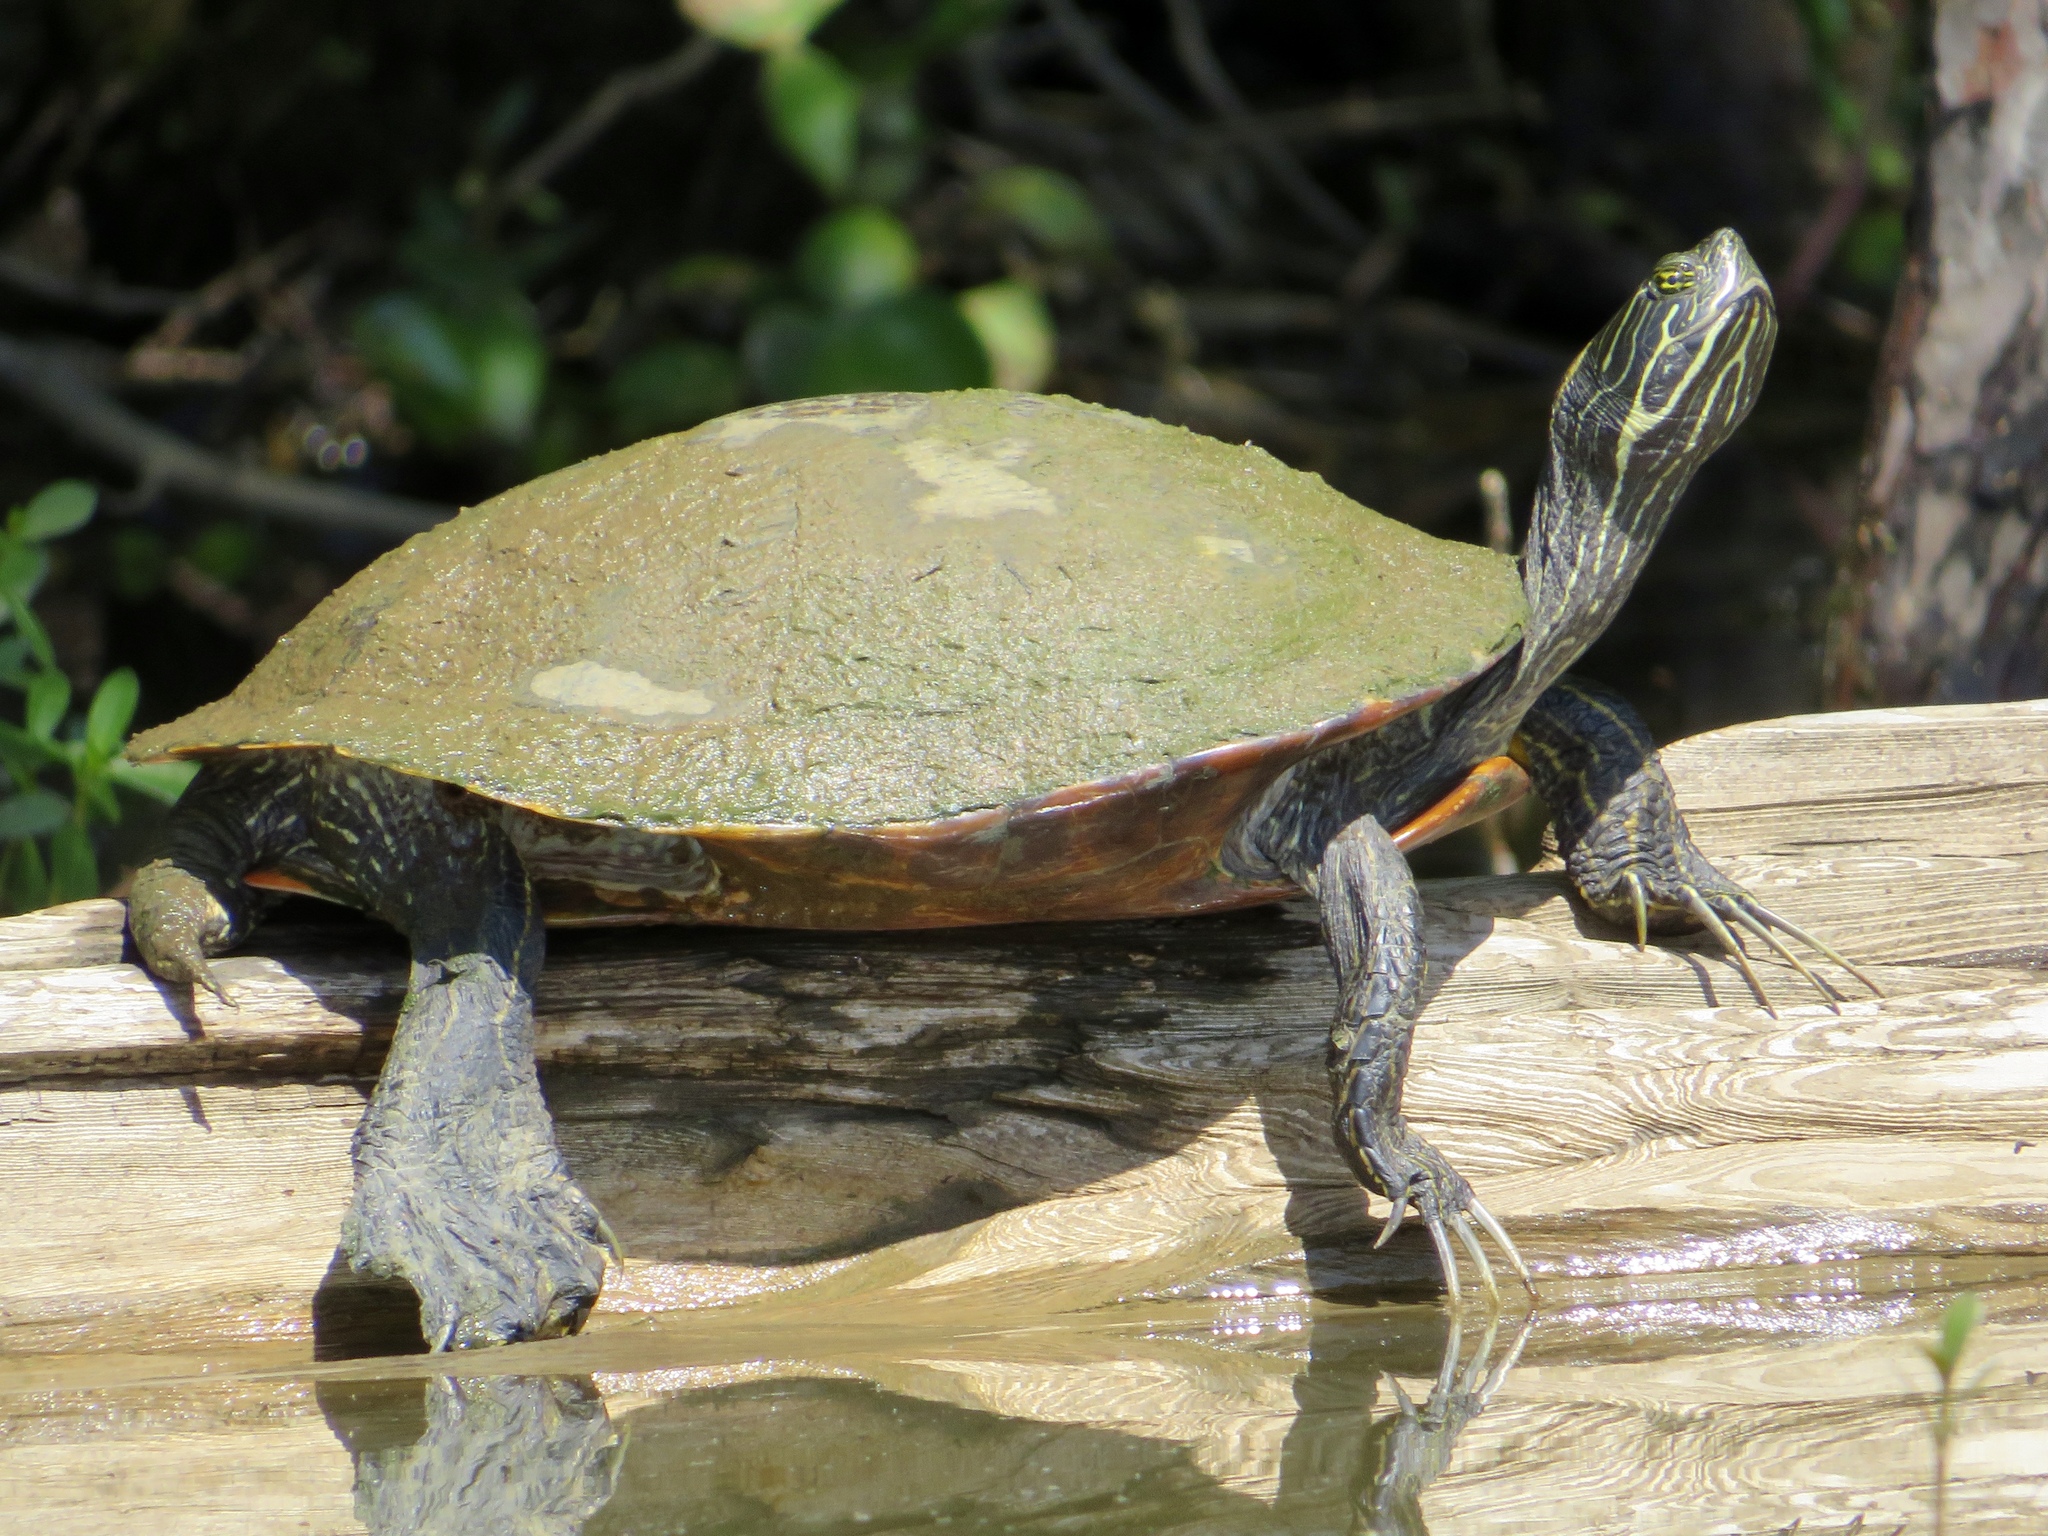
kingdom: Animalia
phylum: Chordata
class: Testudines
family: Emydidae
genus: Pseudemys
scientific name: Pseudemys concinna
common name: Eastern river cooter
